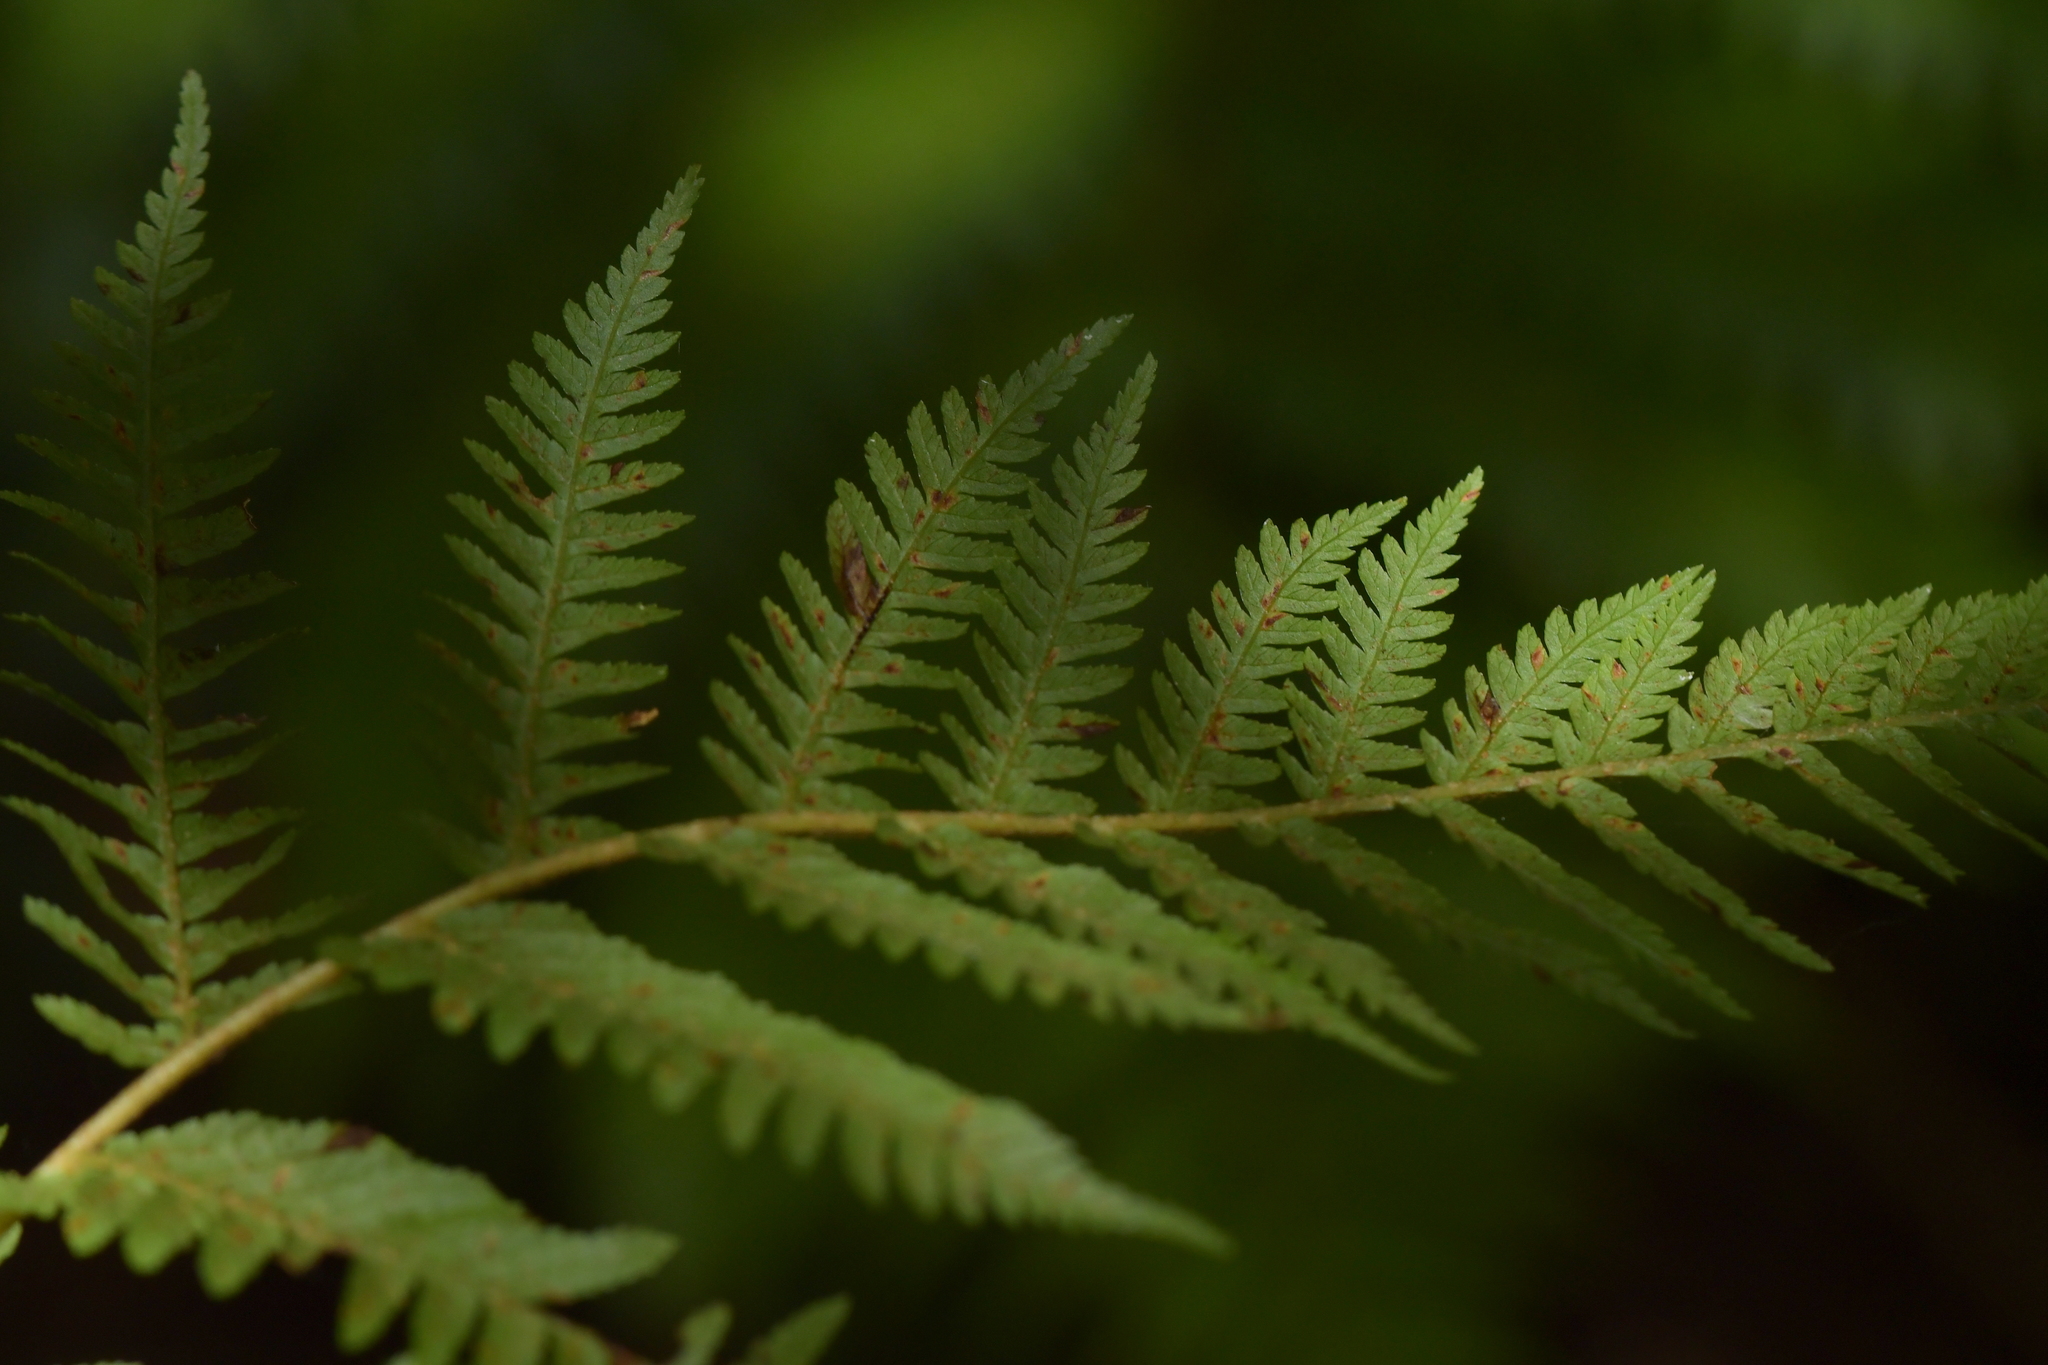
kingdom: Plantae
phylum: Tracheophyta
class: Polypodiopsida
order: Cyatheales
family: Cyatheaceae
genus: Alsophila
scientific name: Alsophila dealbata
